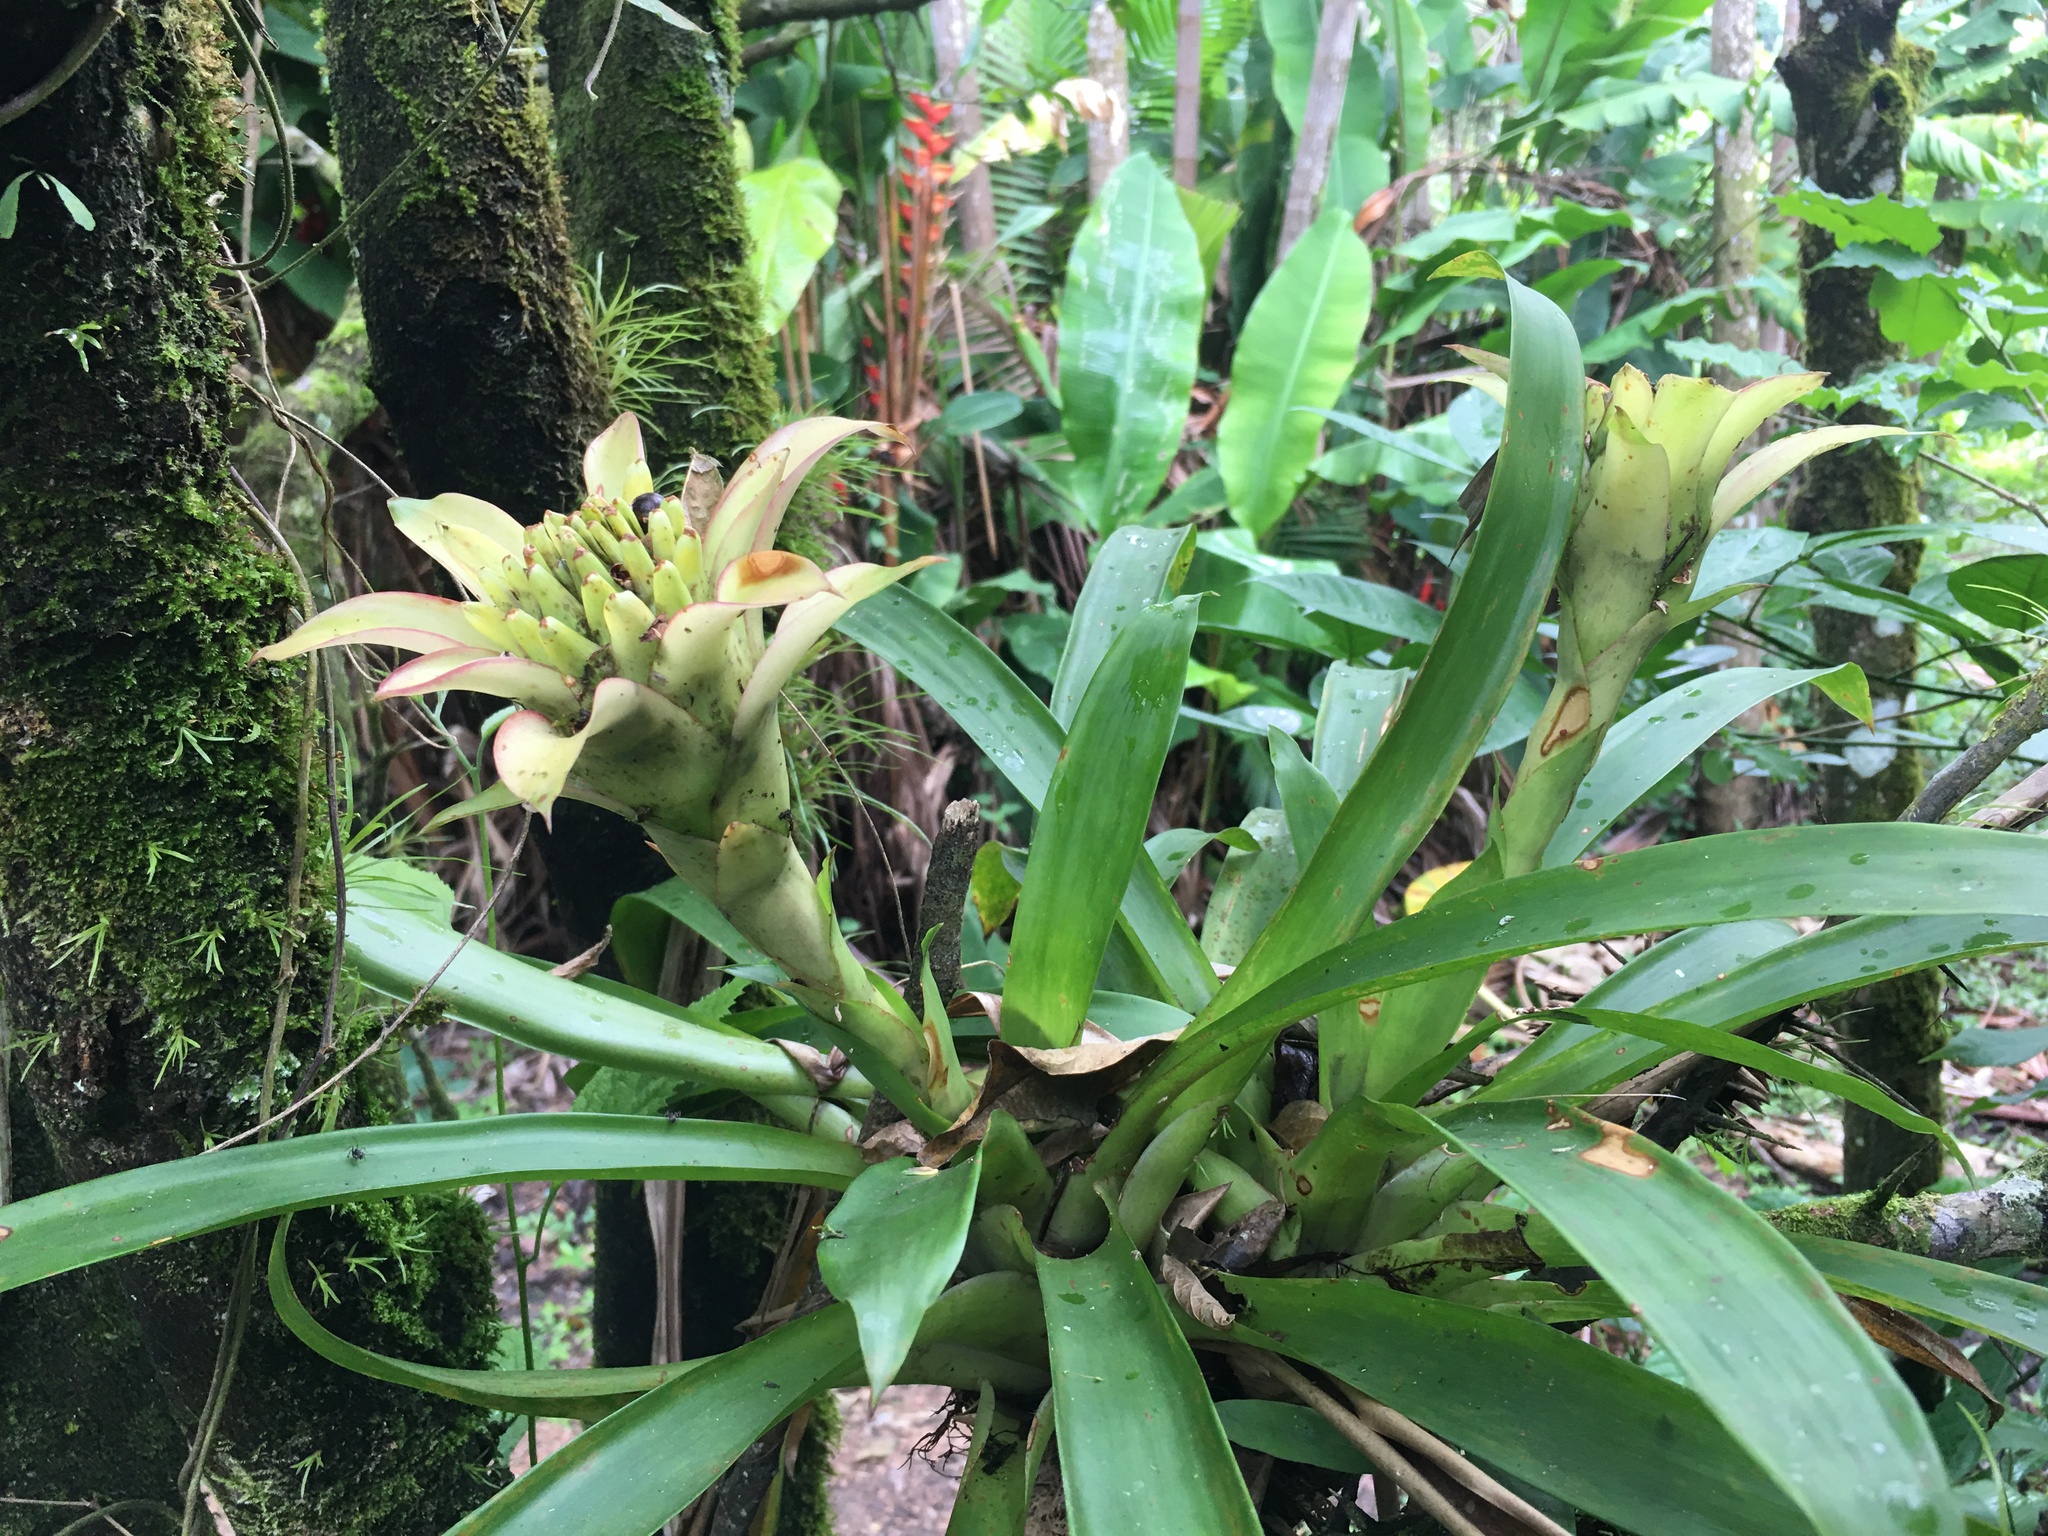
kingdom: Plantae
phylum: Tracheophyta
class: Liliopsida
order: Poales
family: Bromeliaceae
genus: Guzmania
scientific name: Guzmania lingulata
